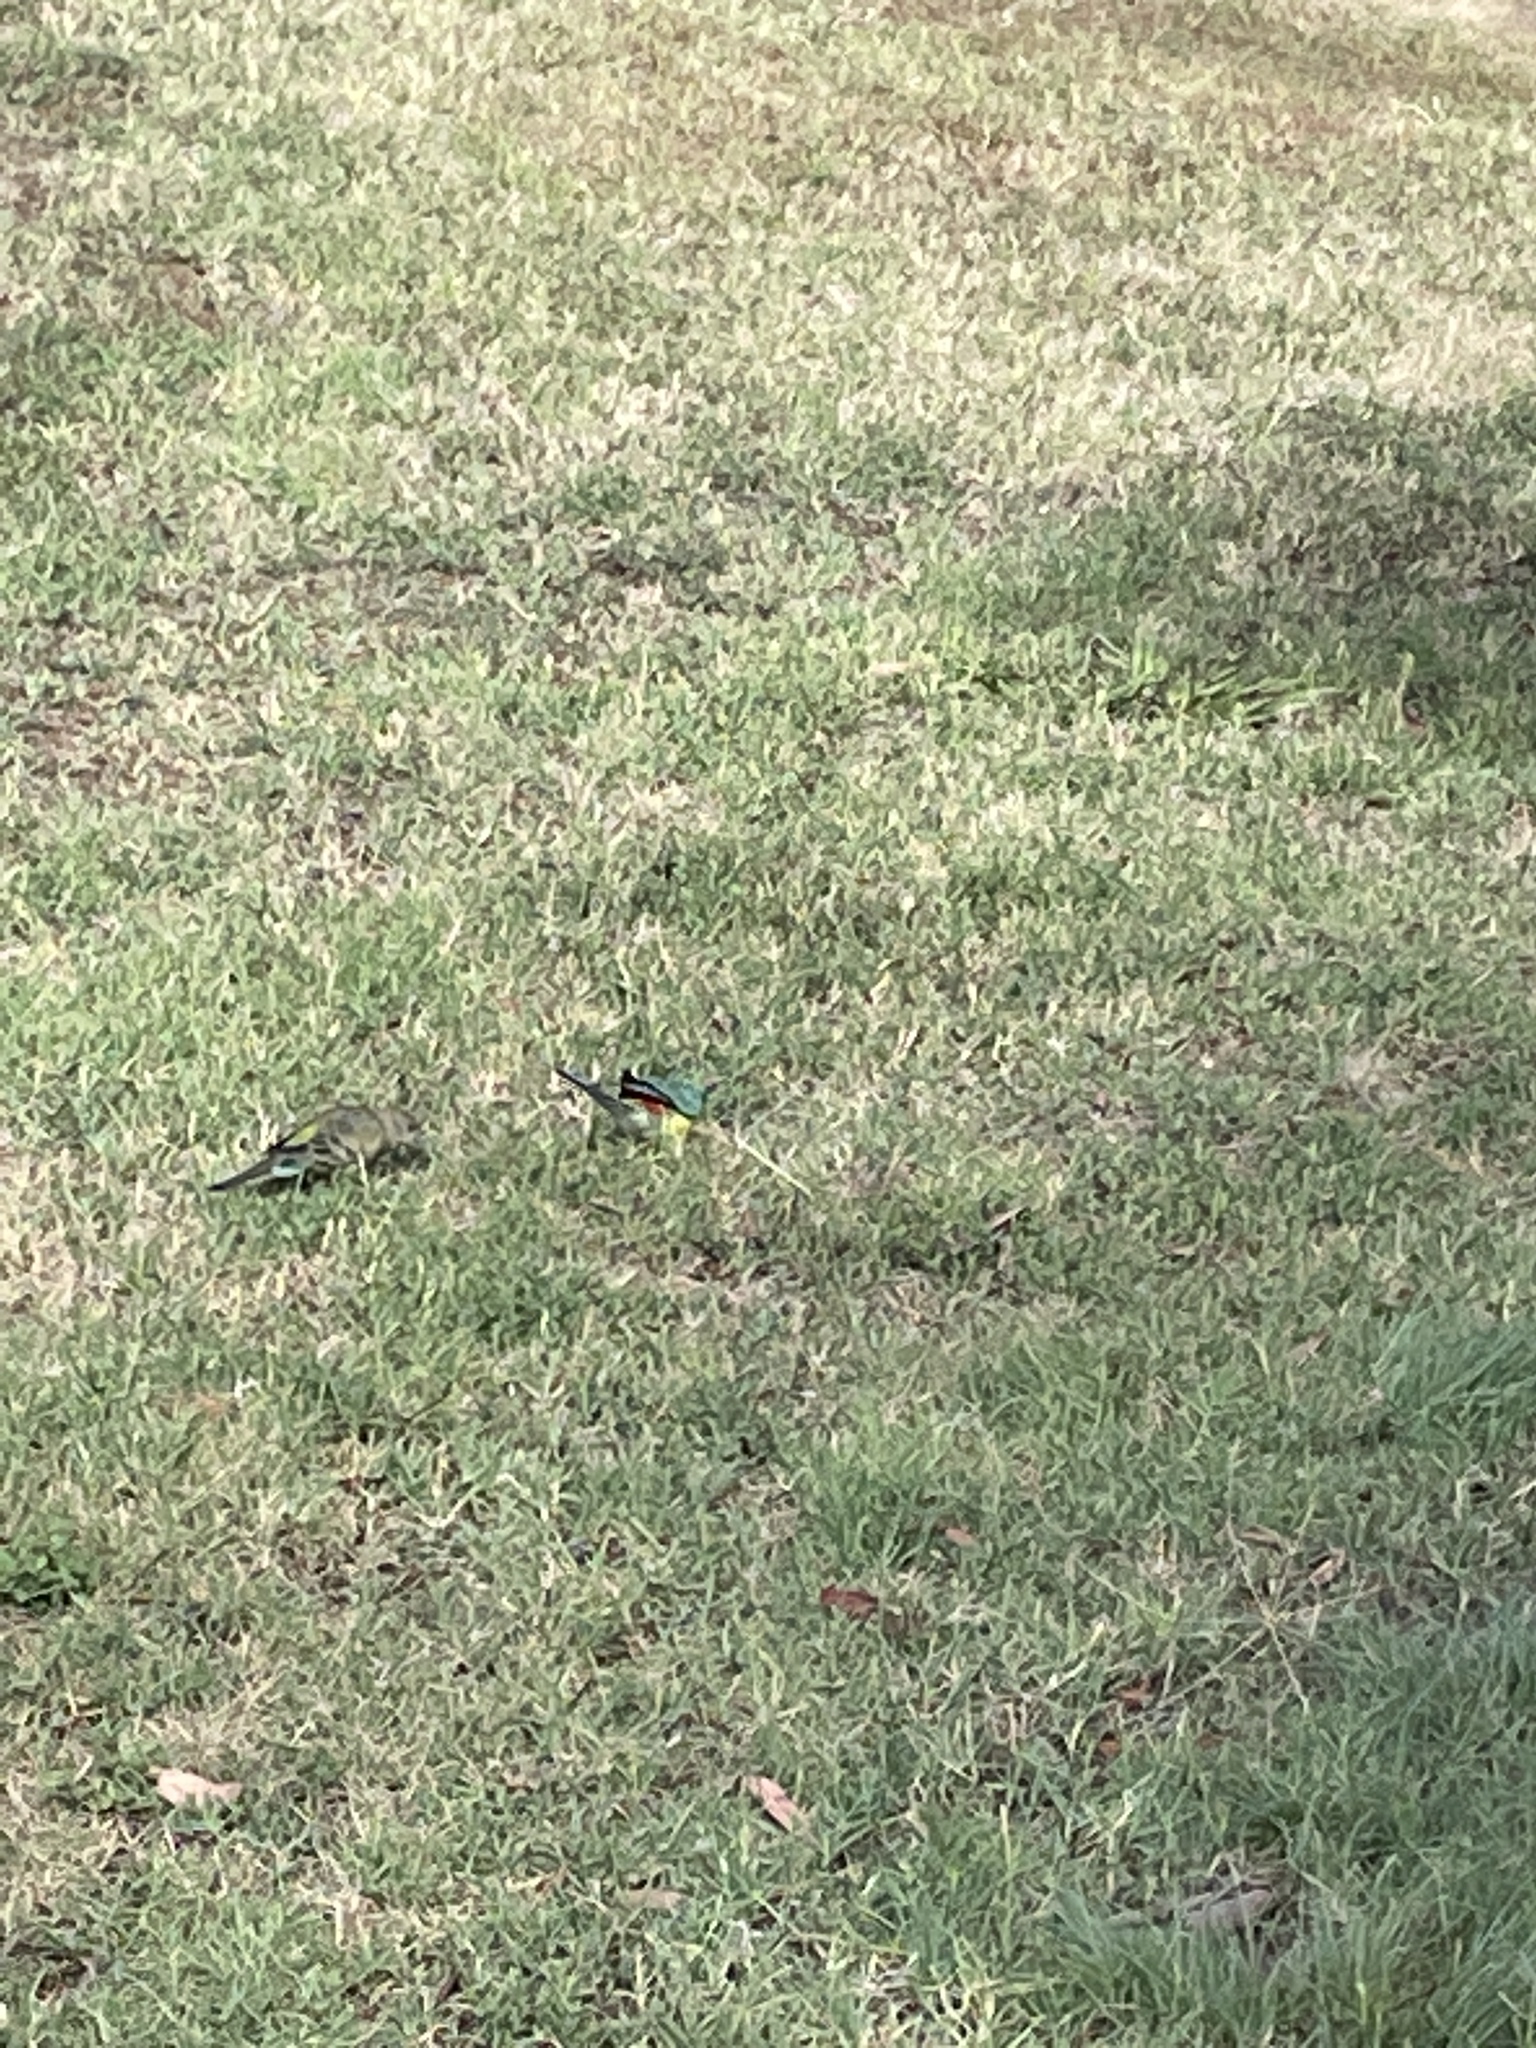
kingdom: Animalia
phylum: Chordata
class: Aves
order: Psittaciformes
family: Psittacidae
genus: Psephotus
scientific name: Psephotus haematonotus
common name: Red-rumped parrot
